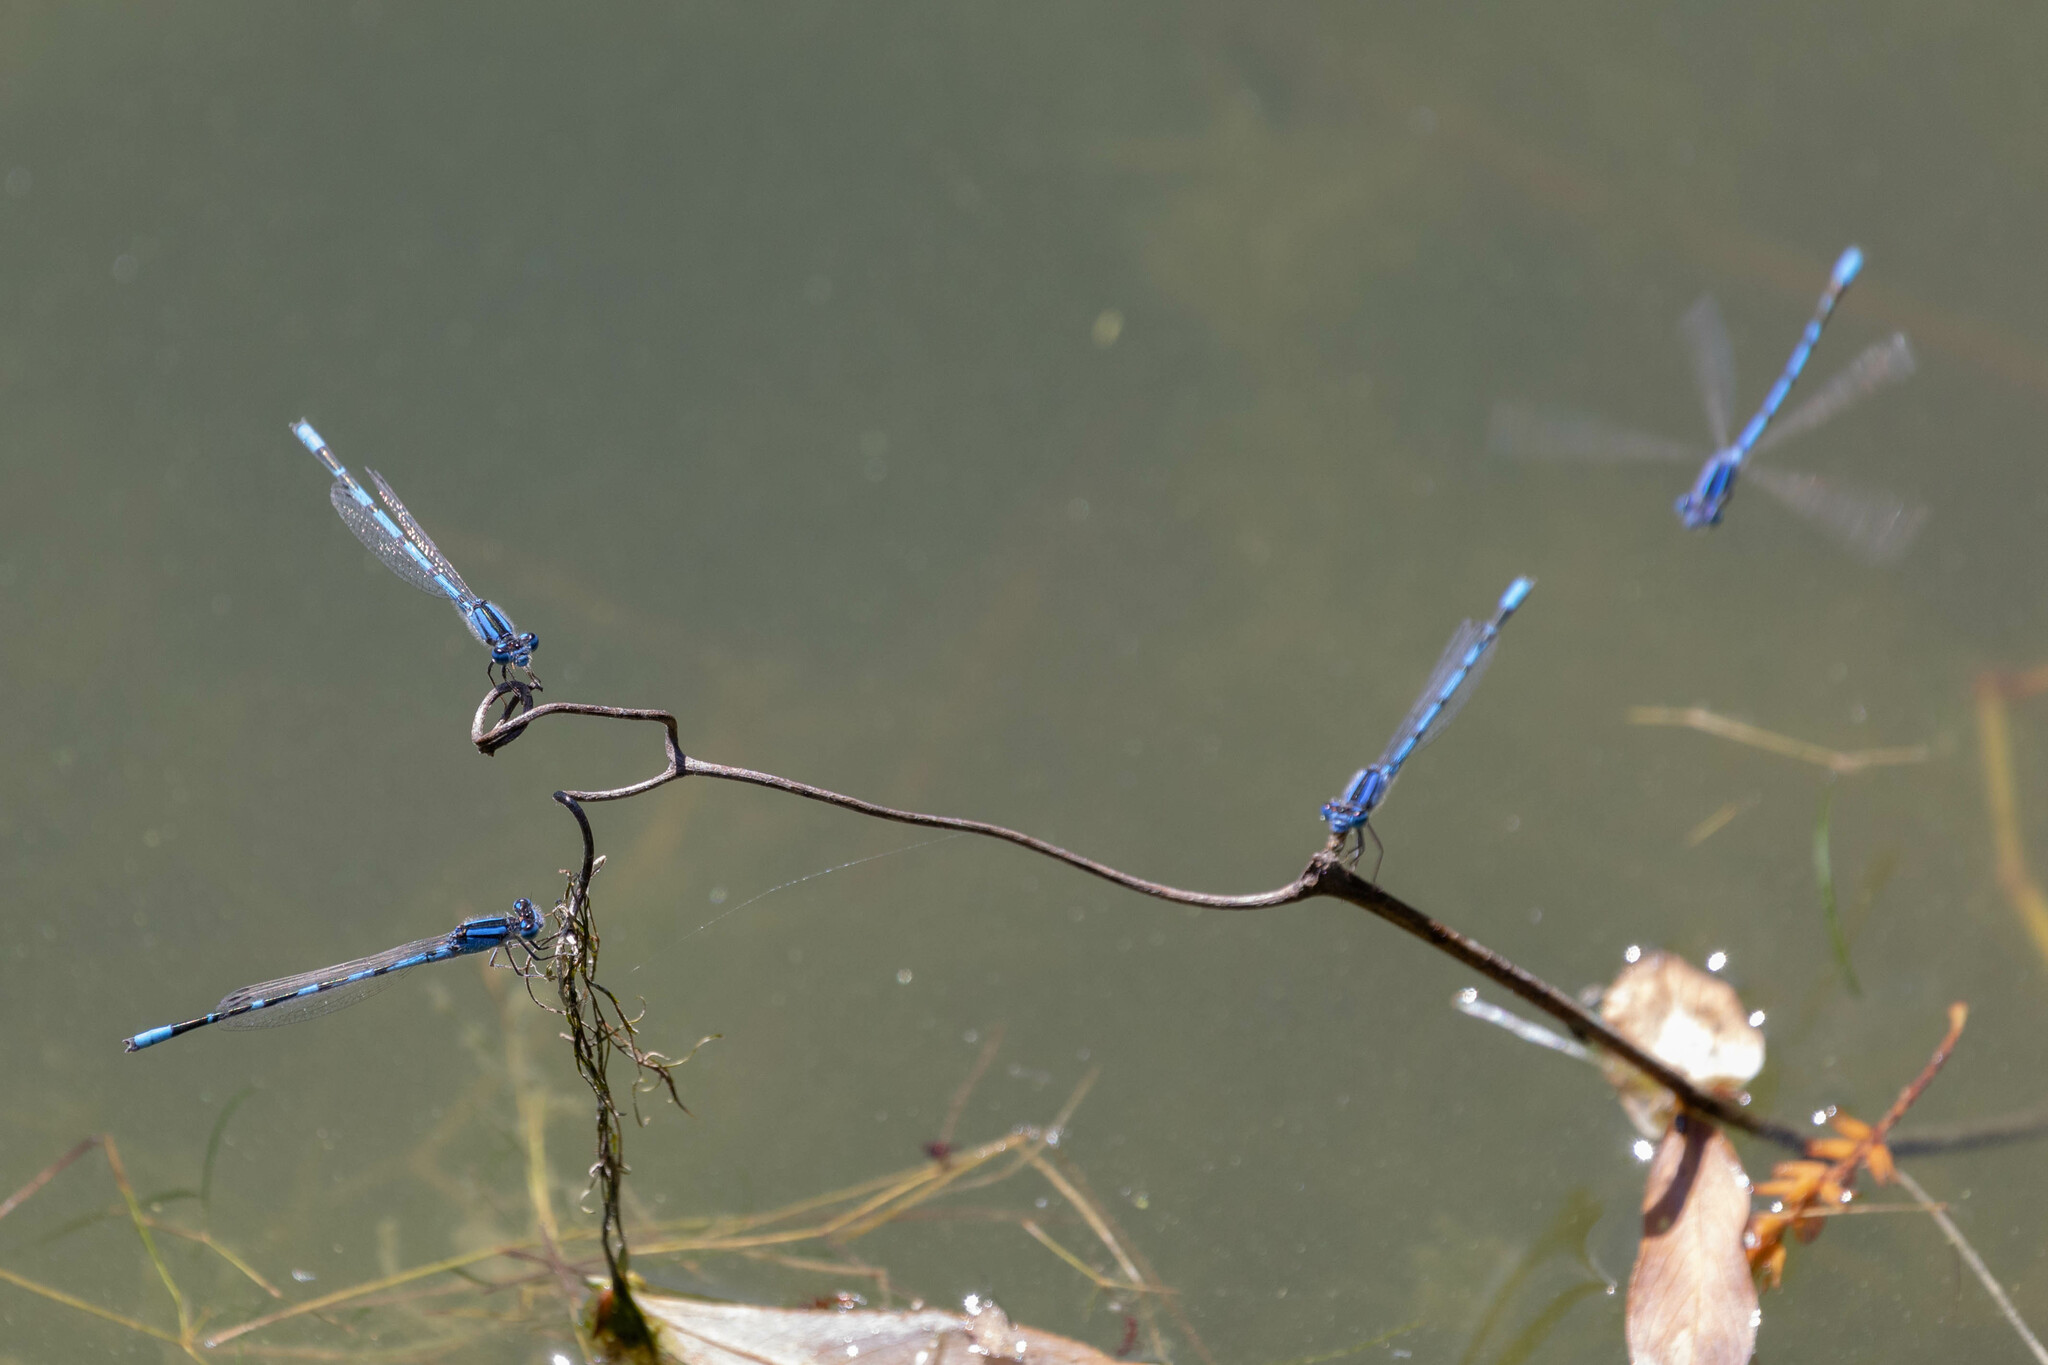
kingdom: Animalia
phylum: Arthropoda
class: Insecta
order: Odonata
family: Coenagrionidae
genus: Enallagma
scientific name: Enallagma civile
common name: Damselfly
